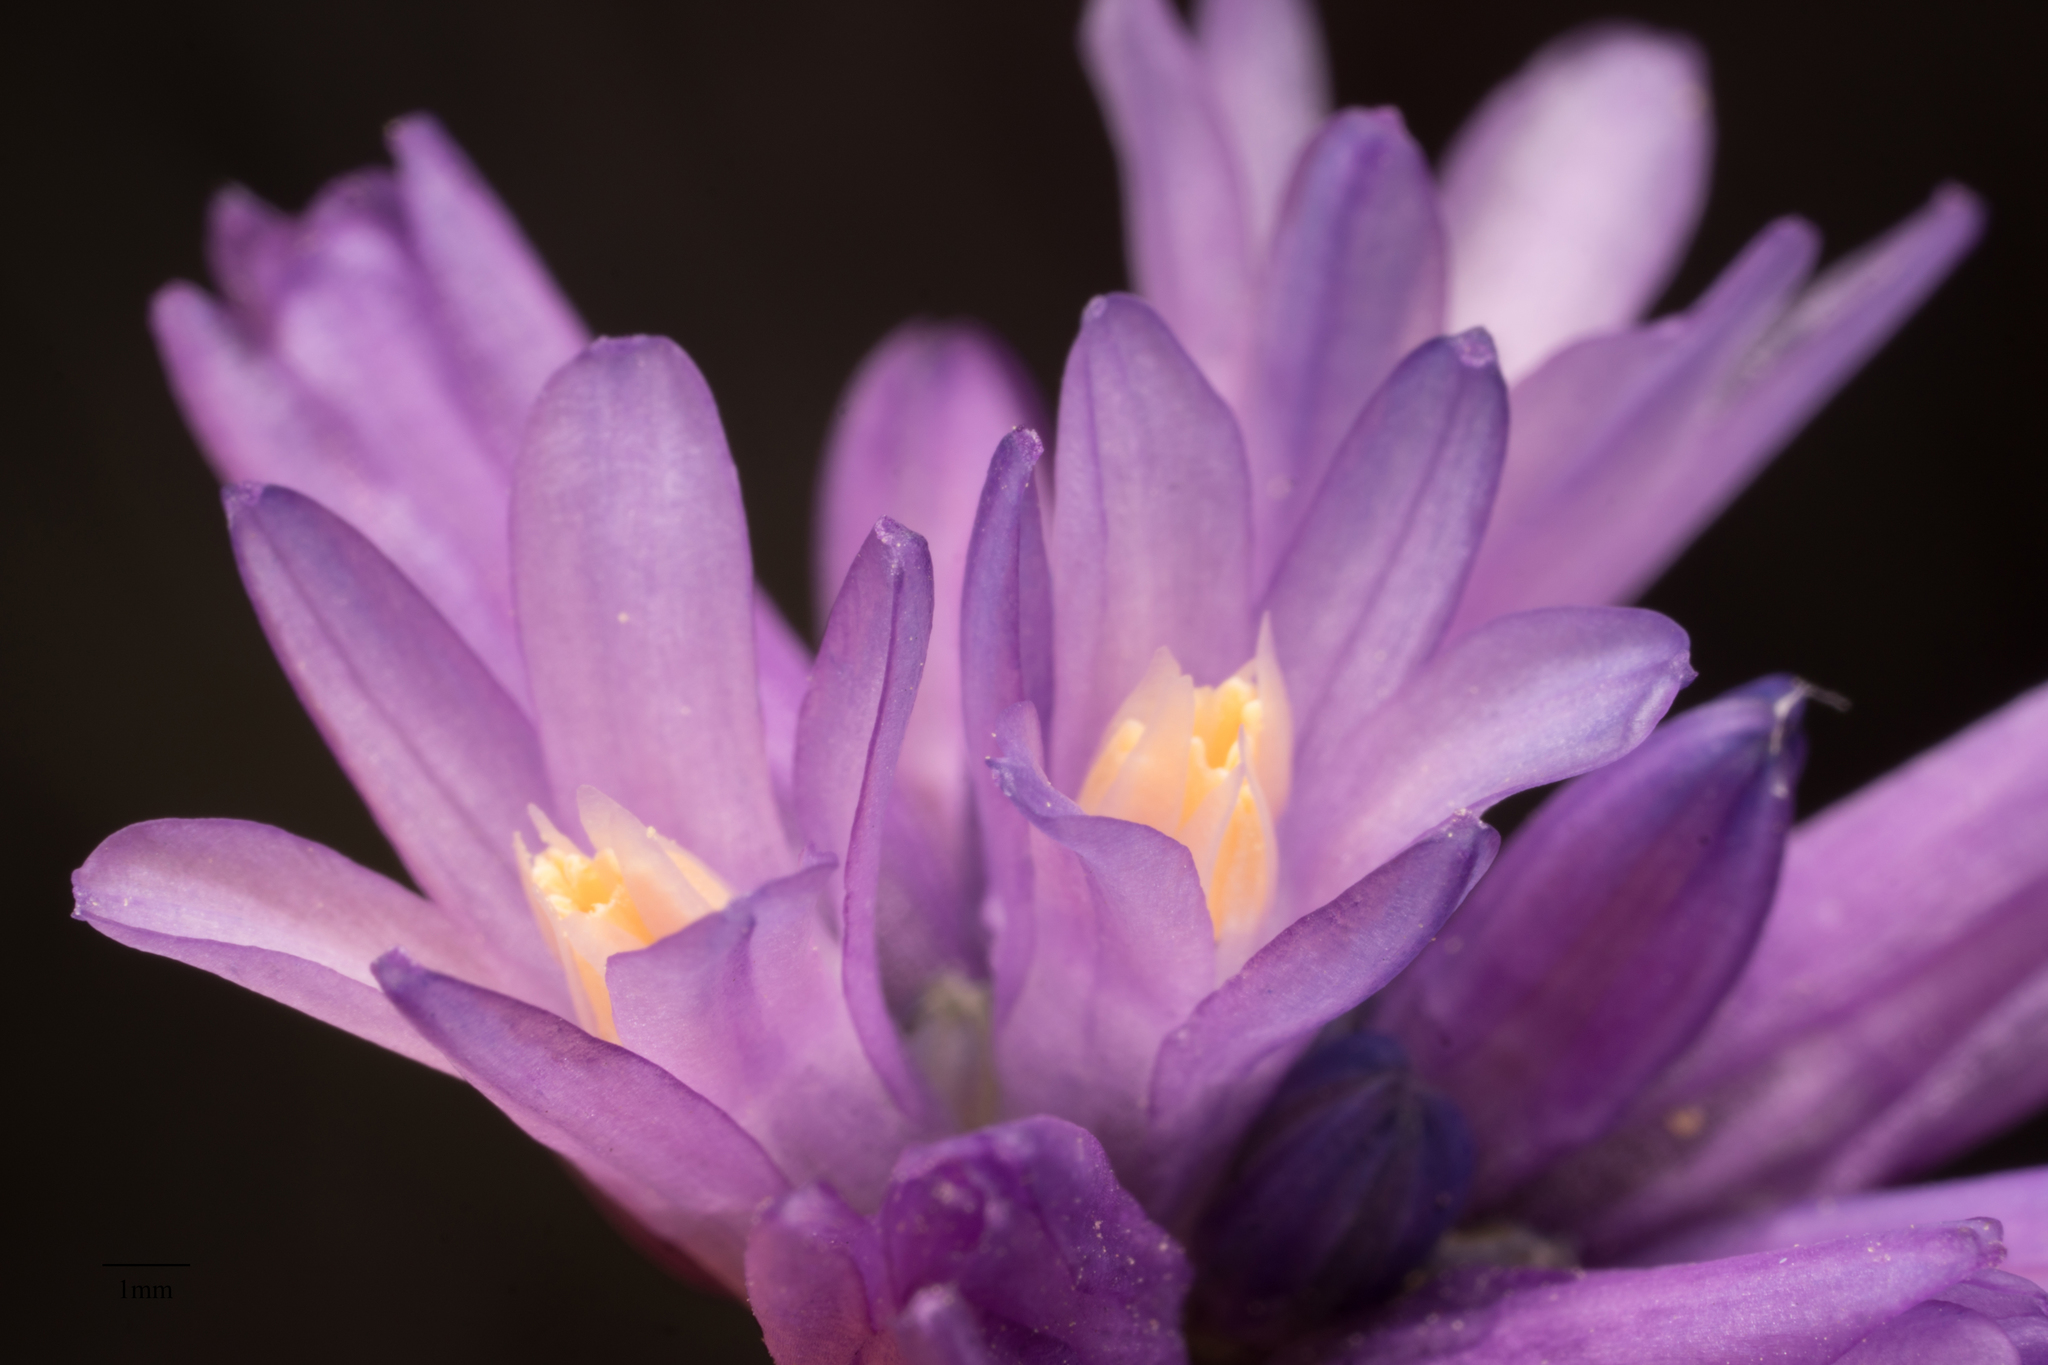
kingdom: Plantae
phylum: Tracheophyta
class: Liliopsida
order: Asparagales
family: Asparagaceae
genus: Dipterostemon
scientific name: Dipterostemon capitatus
